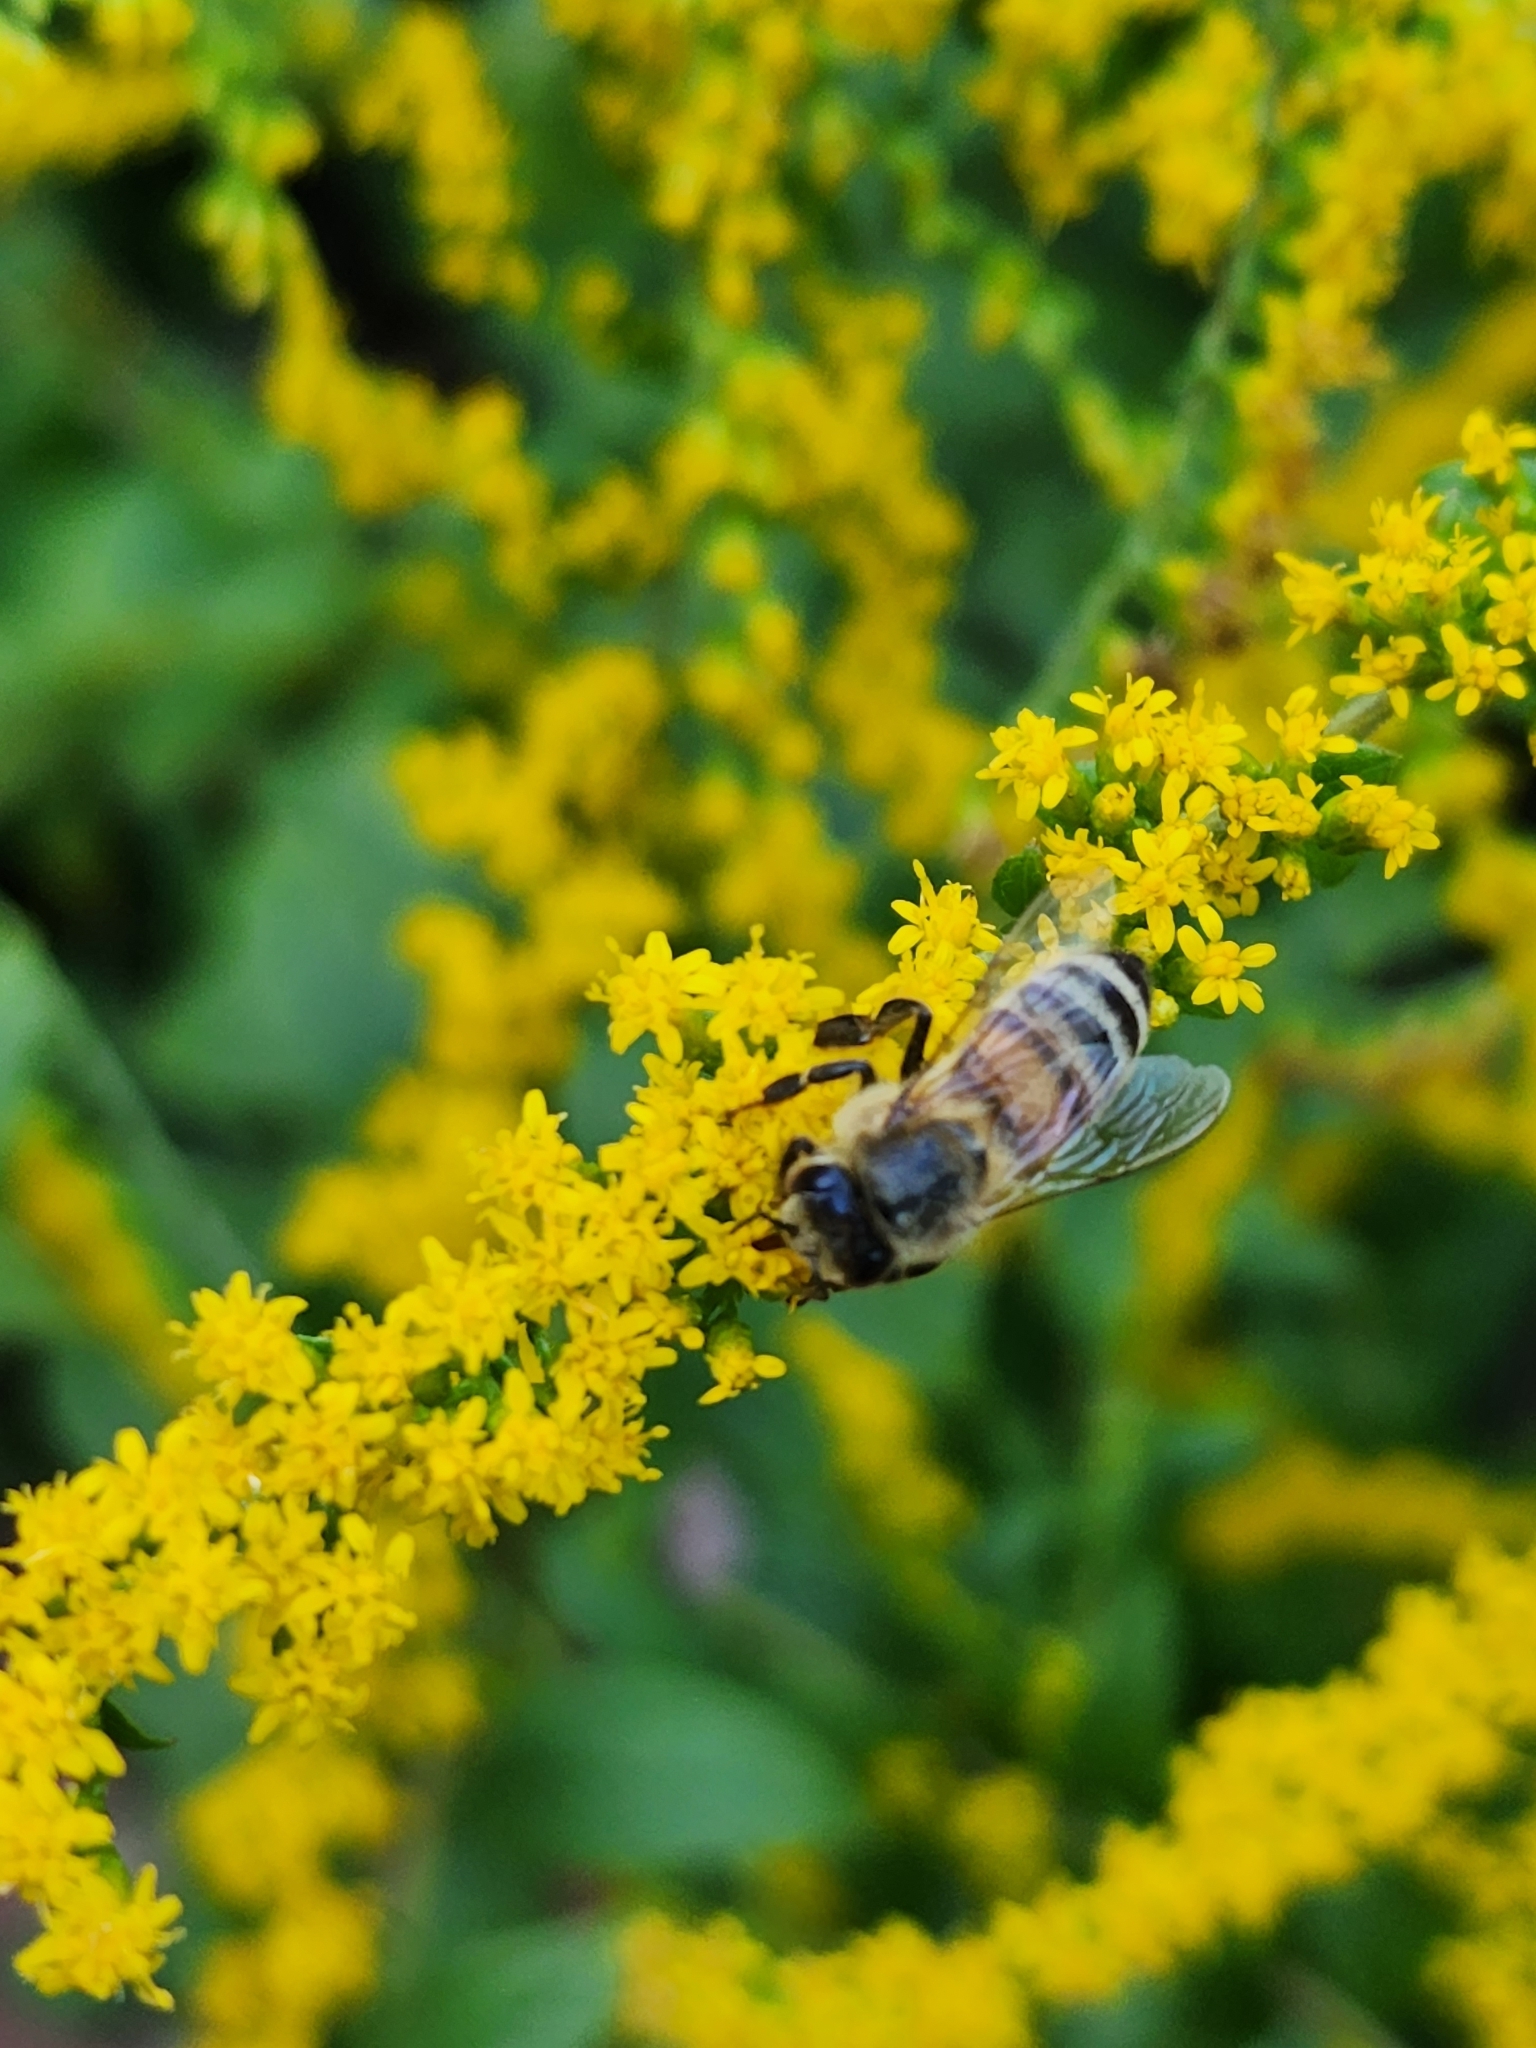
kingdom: Animalia
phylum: Arthropoda
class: Insecta
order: Hymenoptera
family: Apidae
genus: Apis
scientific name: Apis mellifera
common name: Honey bee
